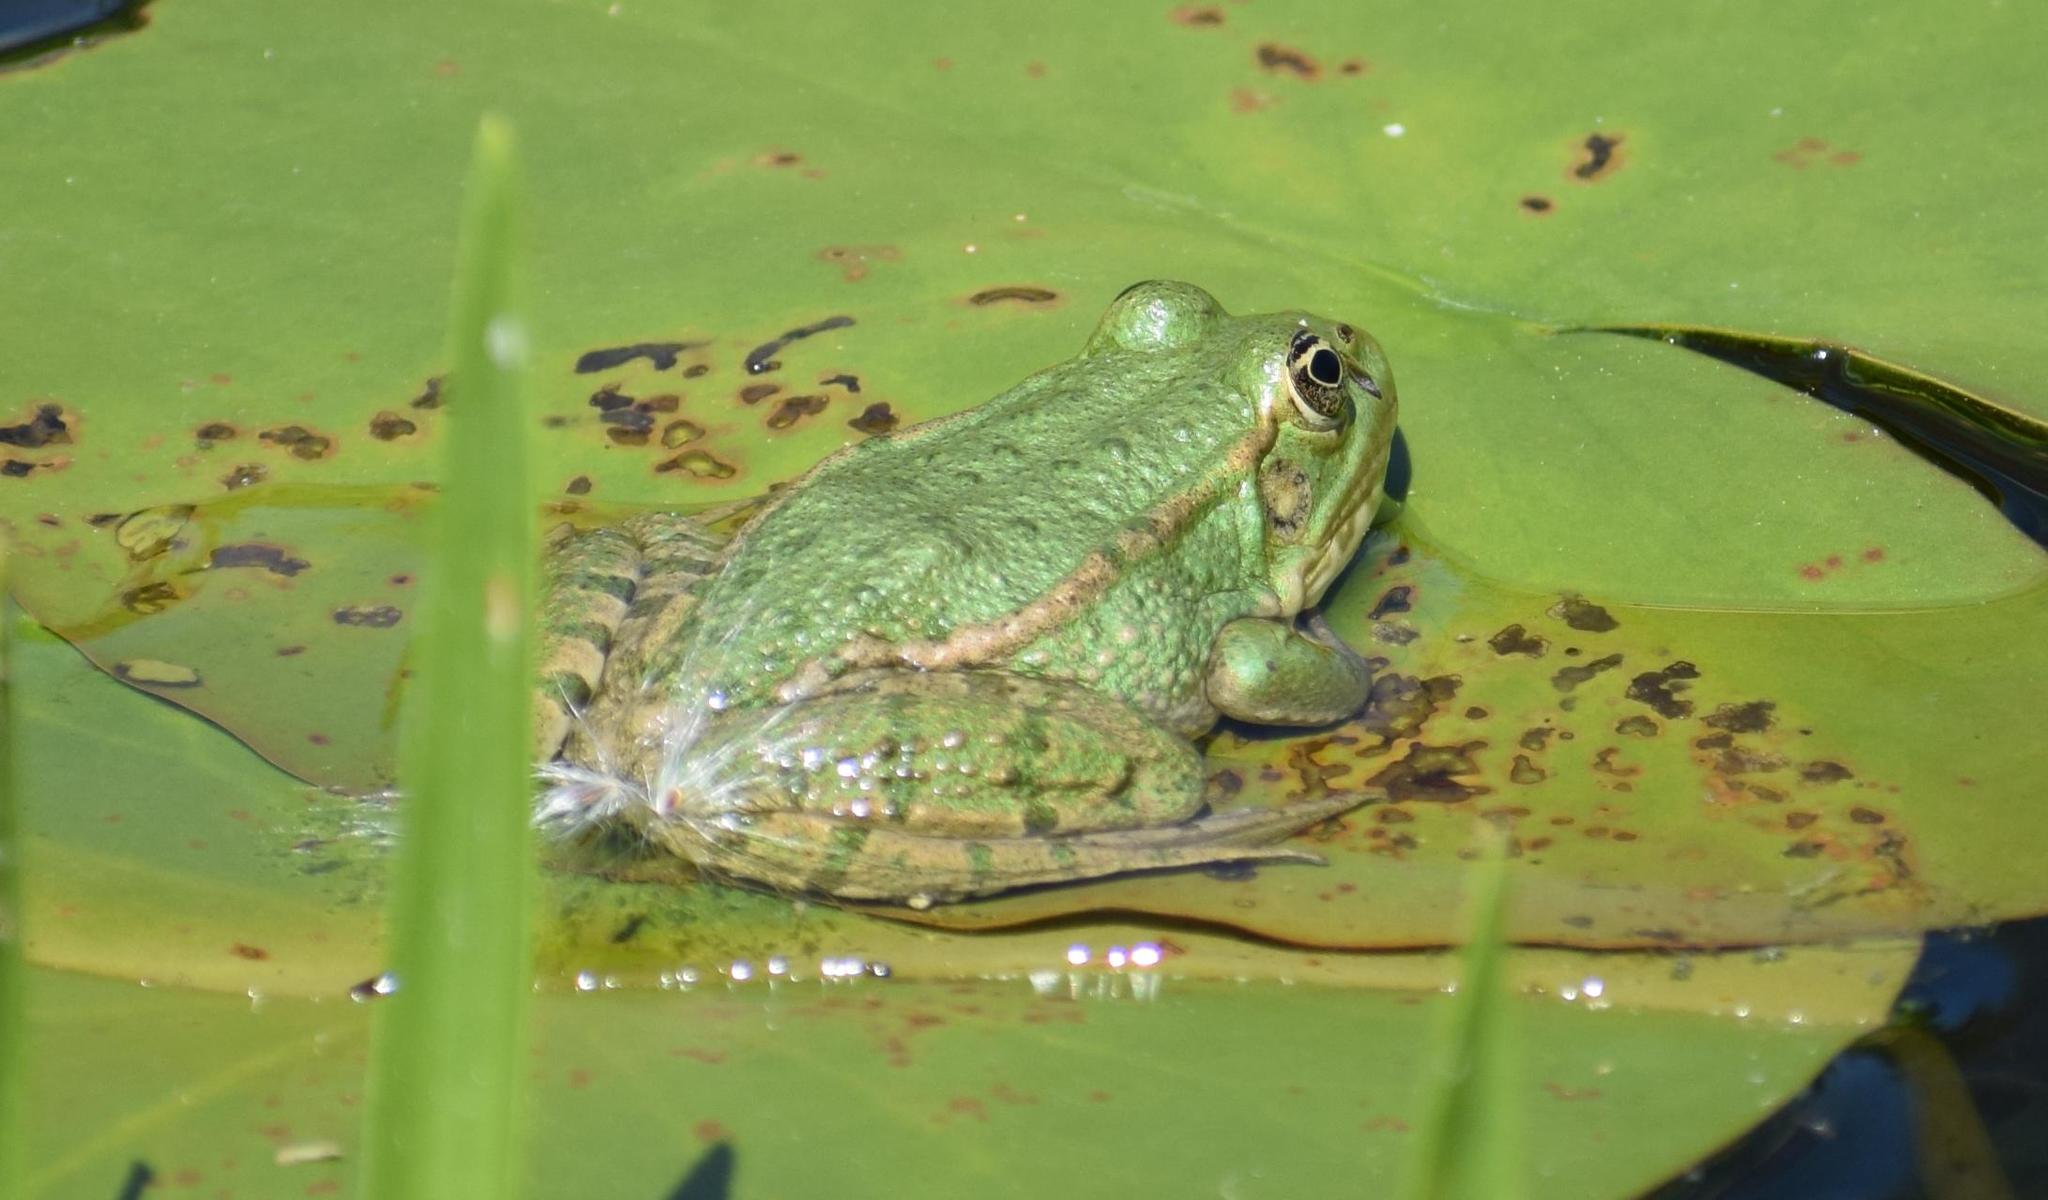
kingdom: Animalia
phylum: Chordata
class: Amphibia
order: Anura
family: Ranidae
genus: Pelophylax
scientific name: Pelophylax
